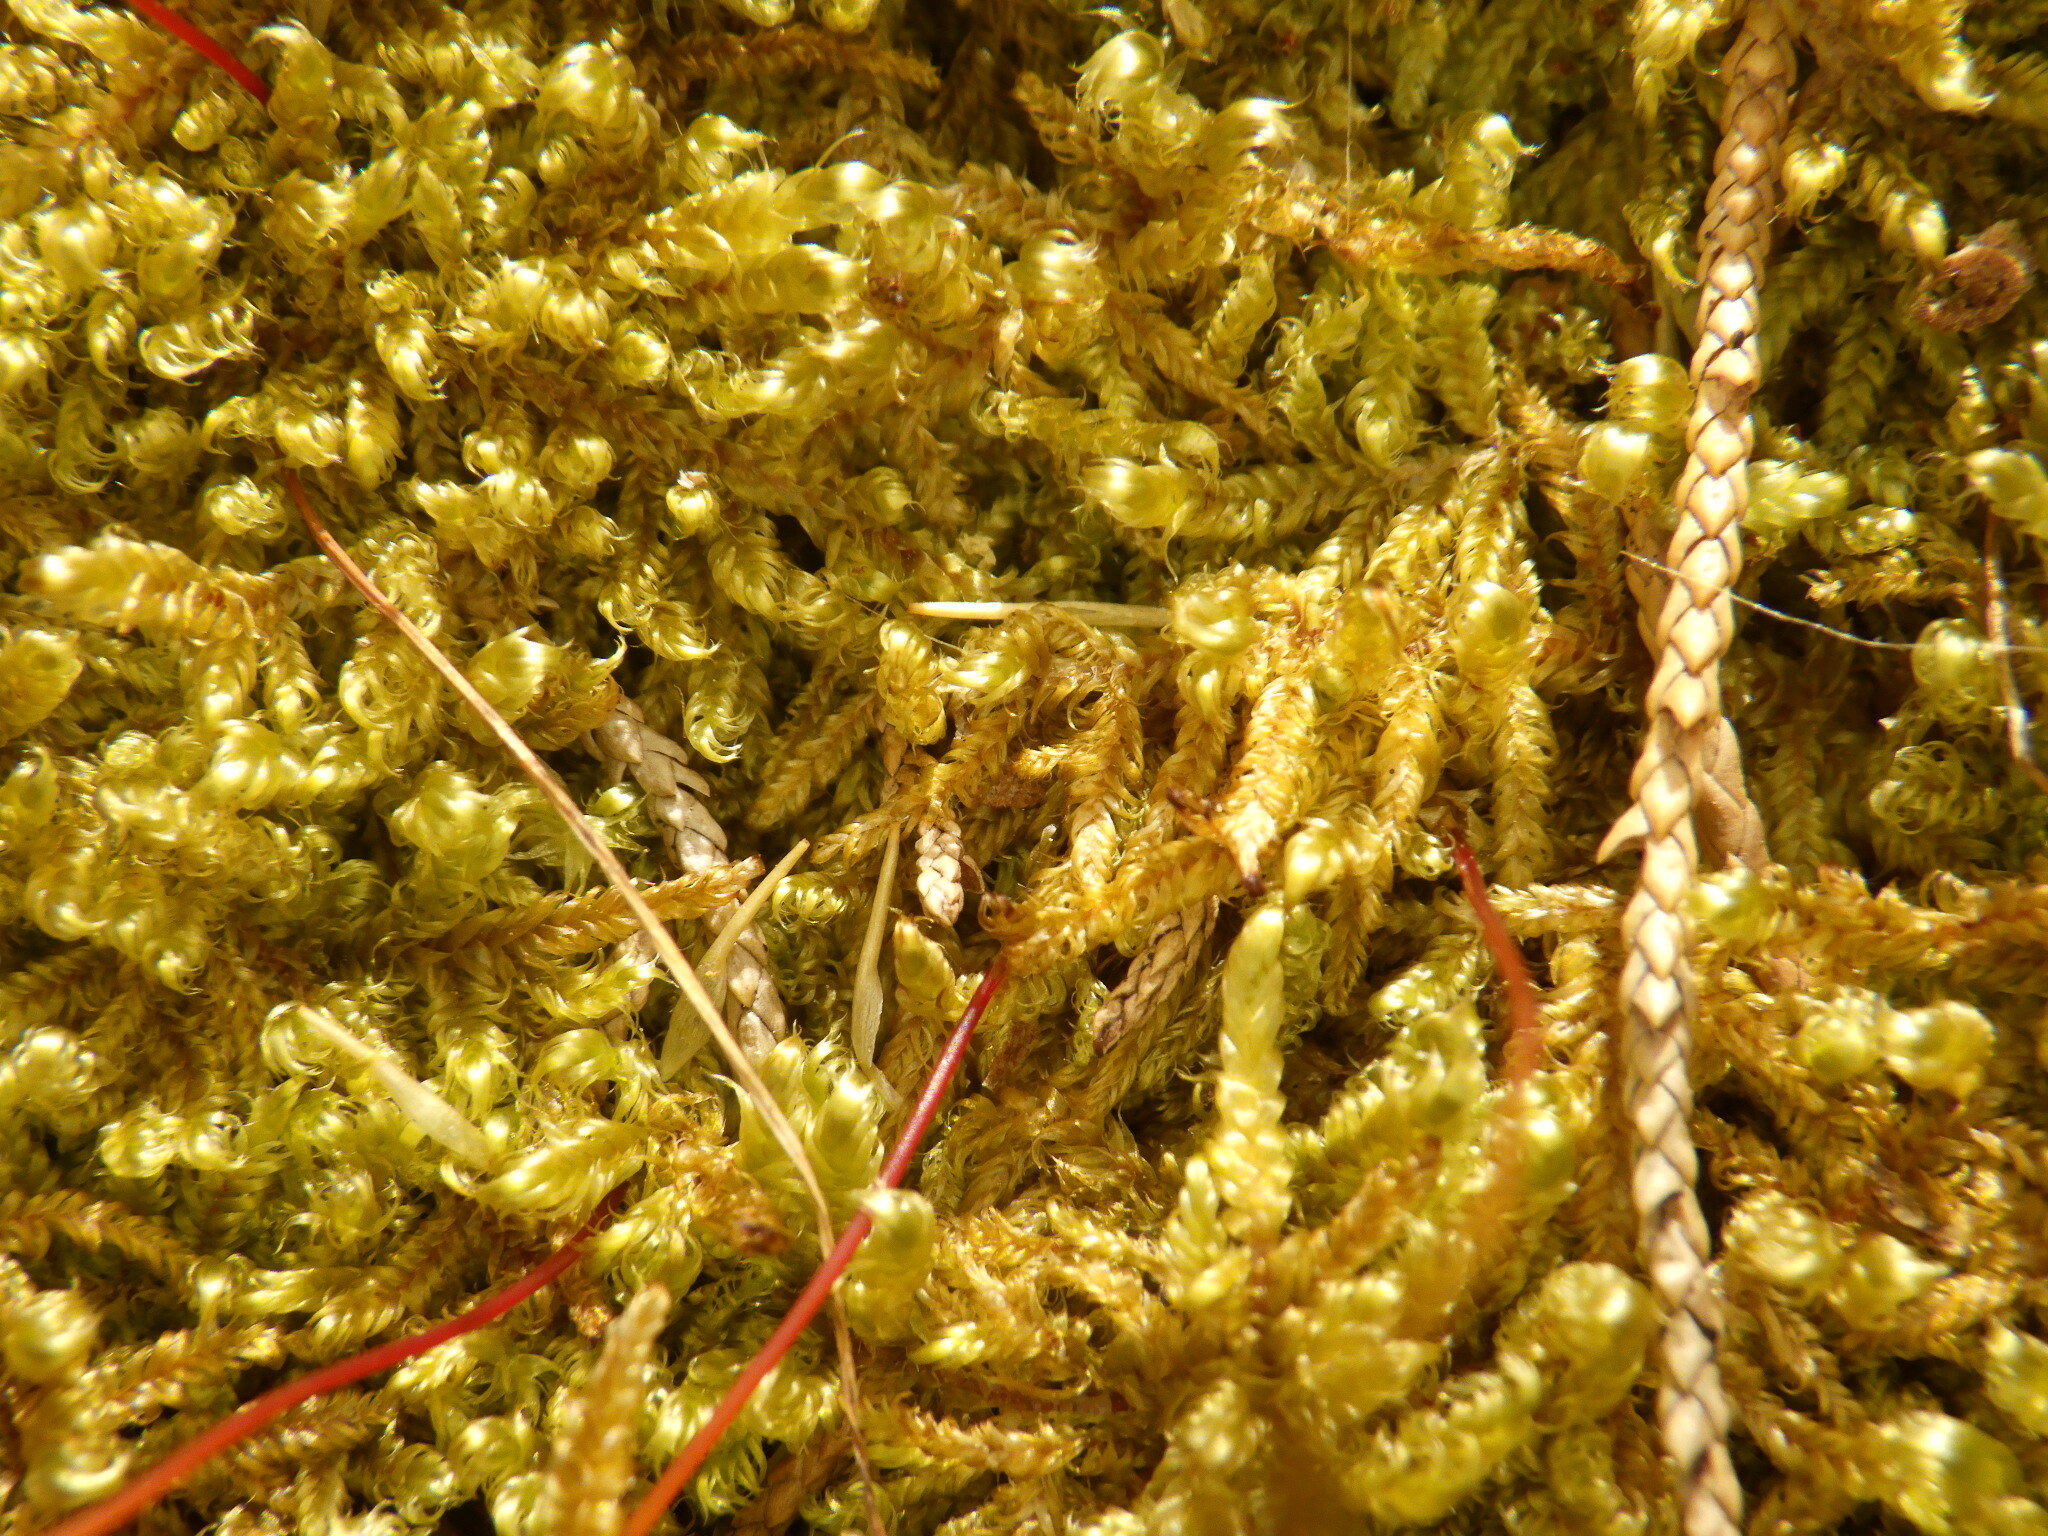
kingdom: Plantae
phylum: Bryophyta
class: Bryopsida
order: Hypnales
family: Pylaisiaceae
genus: Calliergonella
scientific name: Calliergonella curvifolia
